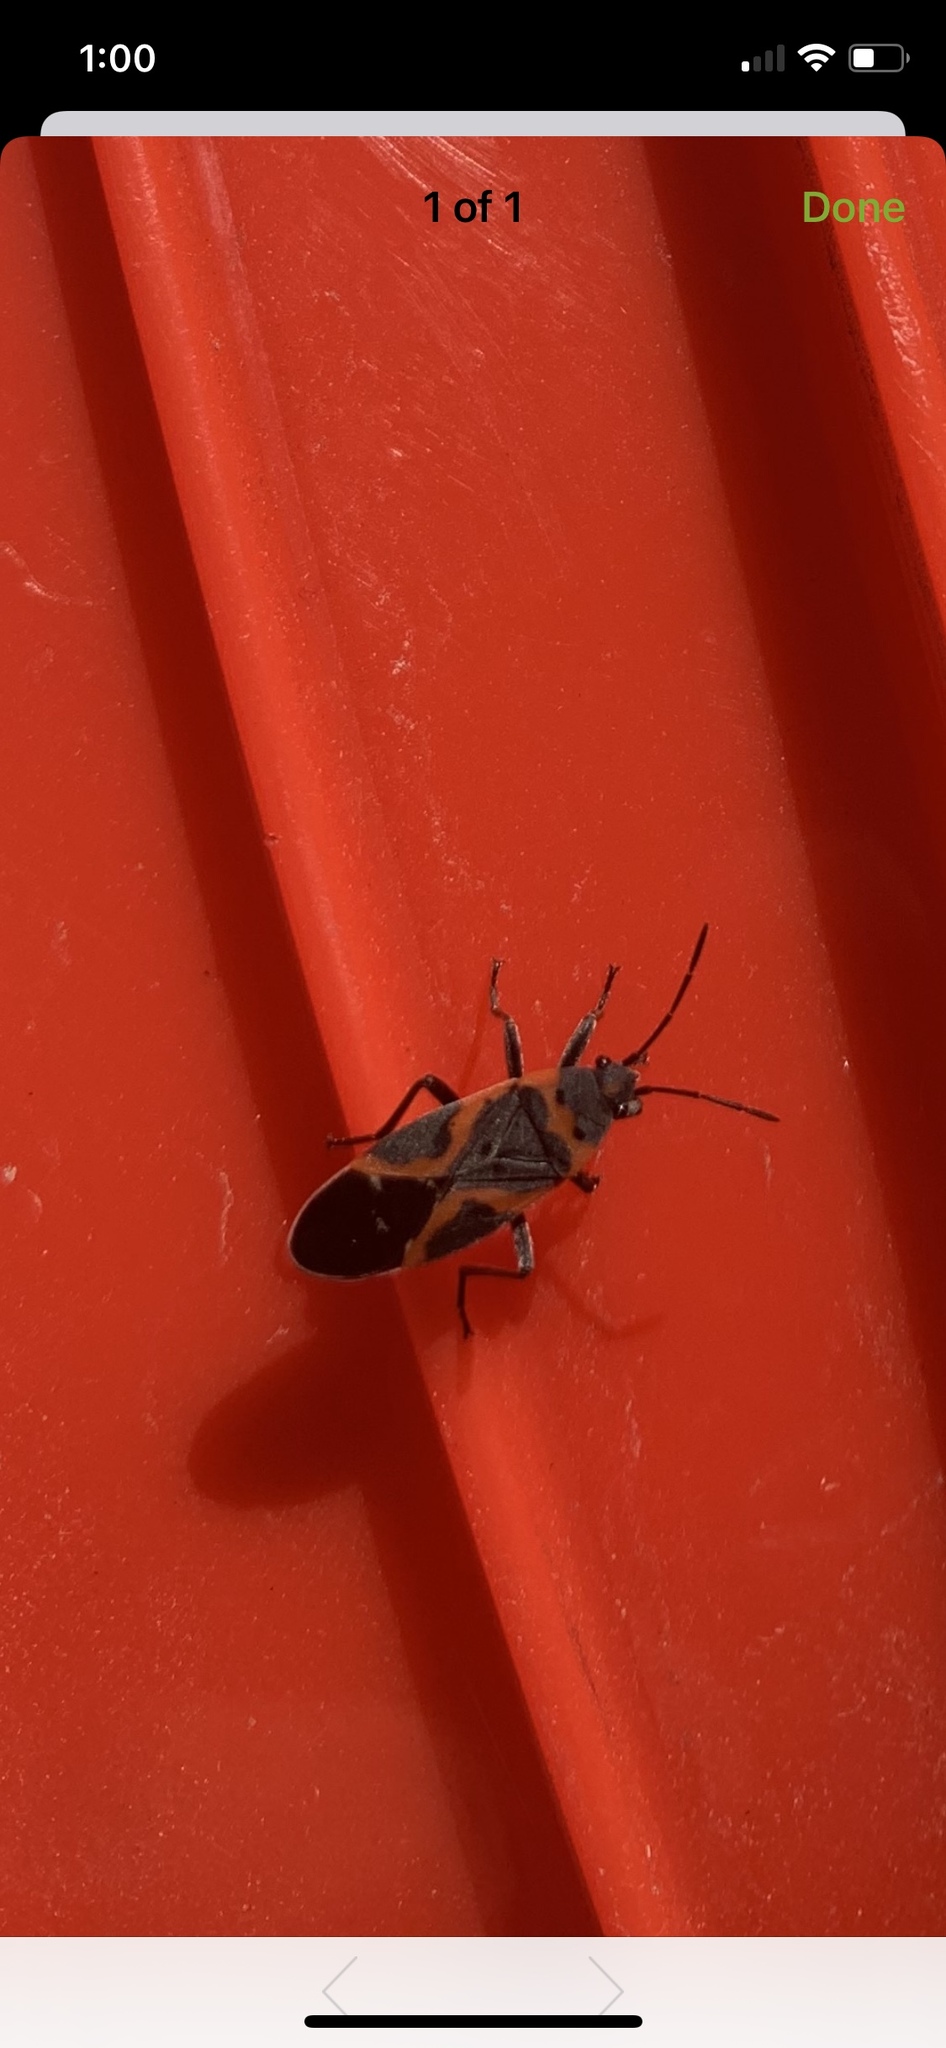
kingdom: Animalia
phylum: Arthropoda
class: Insecta
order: Hemiptera
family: Lygaeidae
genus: Lygaeus
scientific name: Lygaeus kalmii
